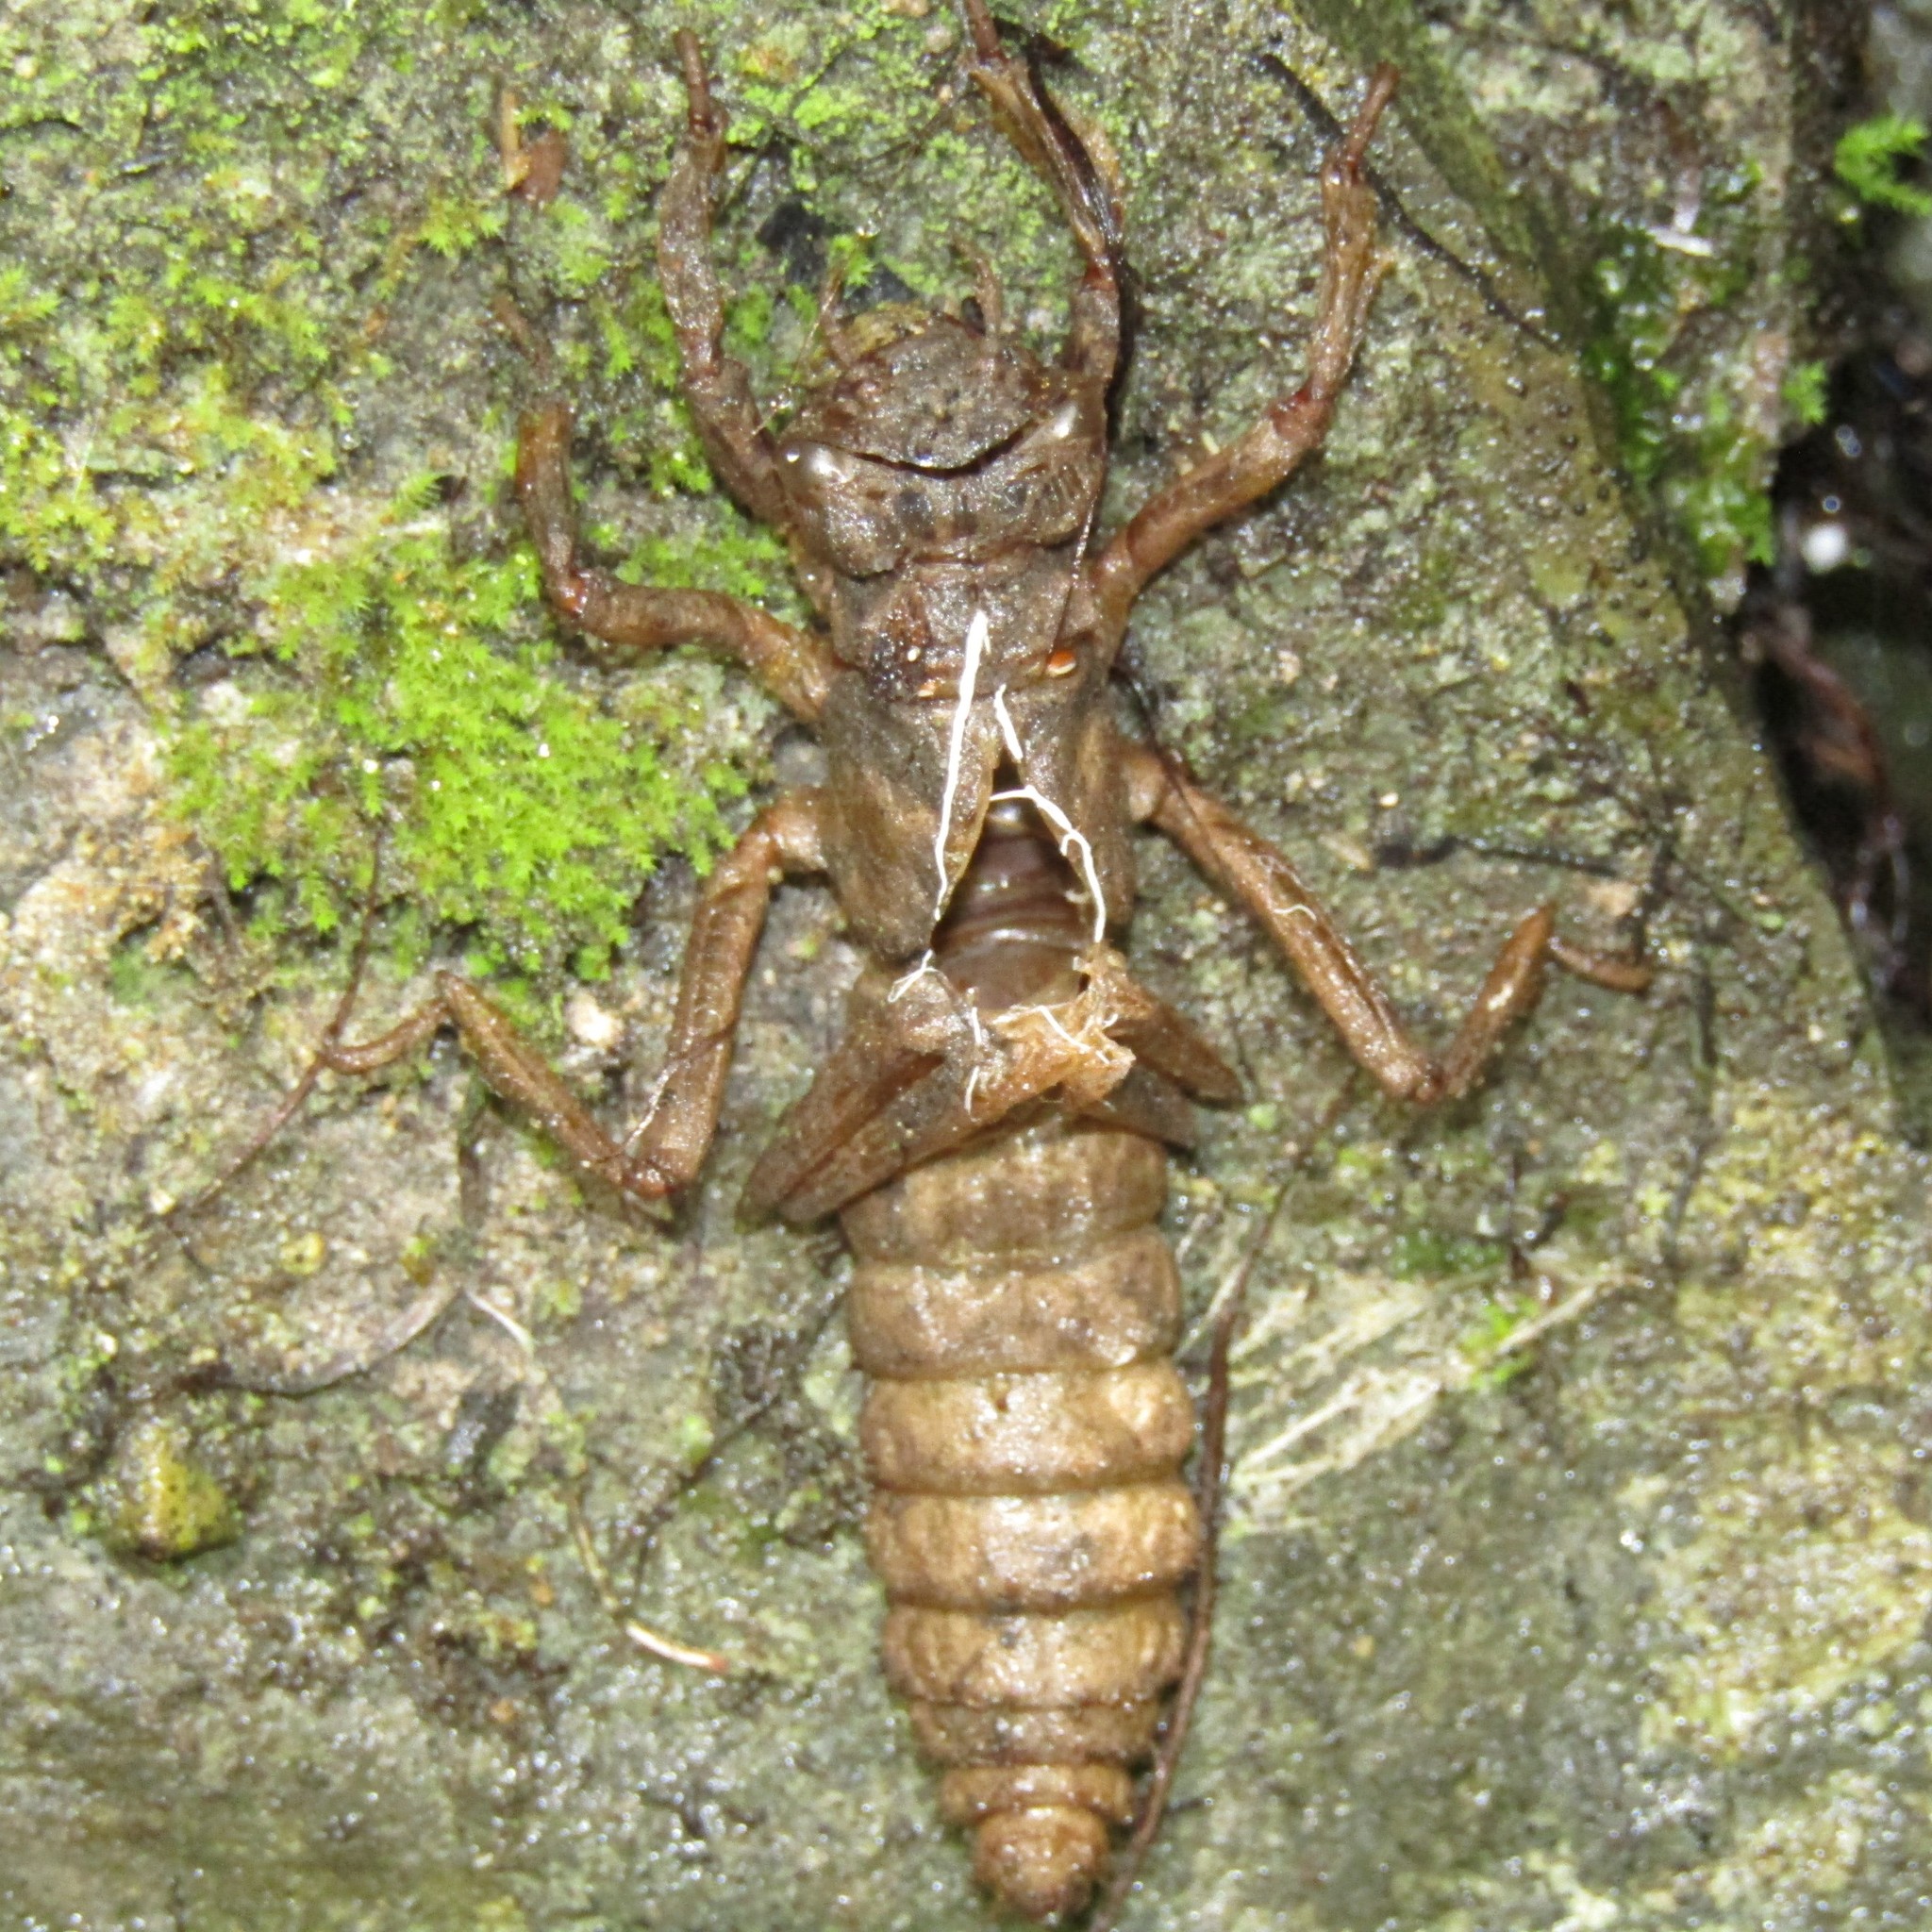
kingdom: Animalia
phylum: Arthropoda
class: Insecta
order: Odonata
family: Petaluridae
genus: Uropetala
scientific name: Uropetala carovei
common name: Bush giant dragonfly
